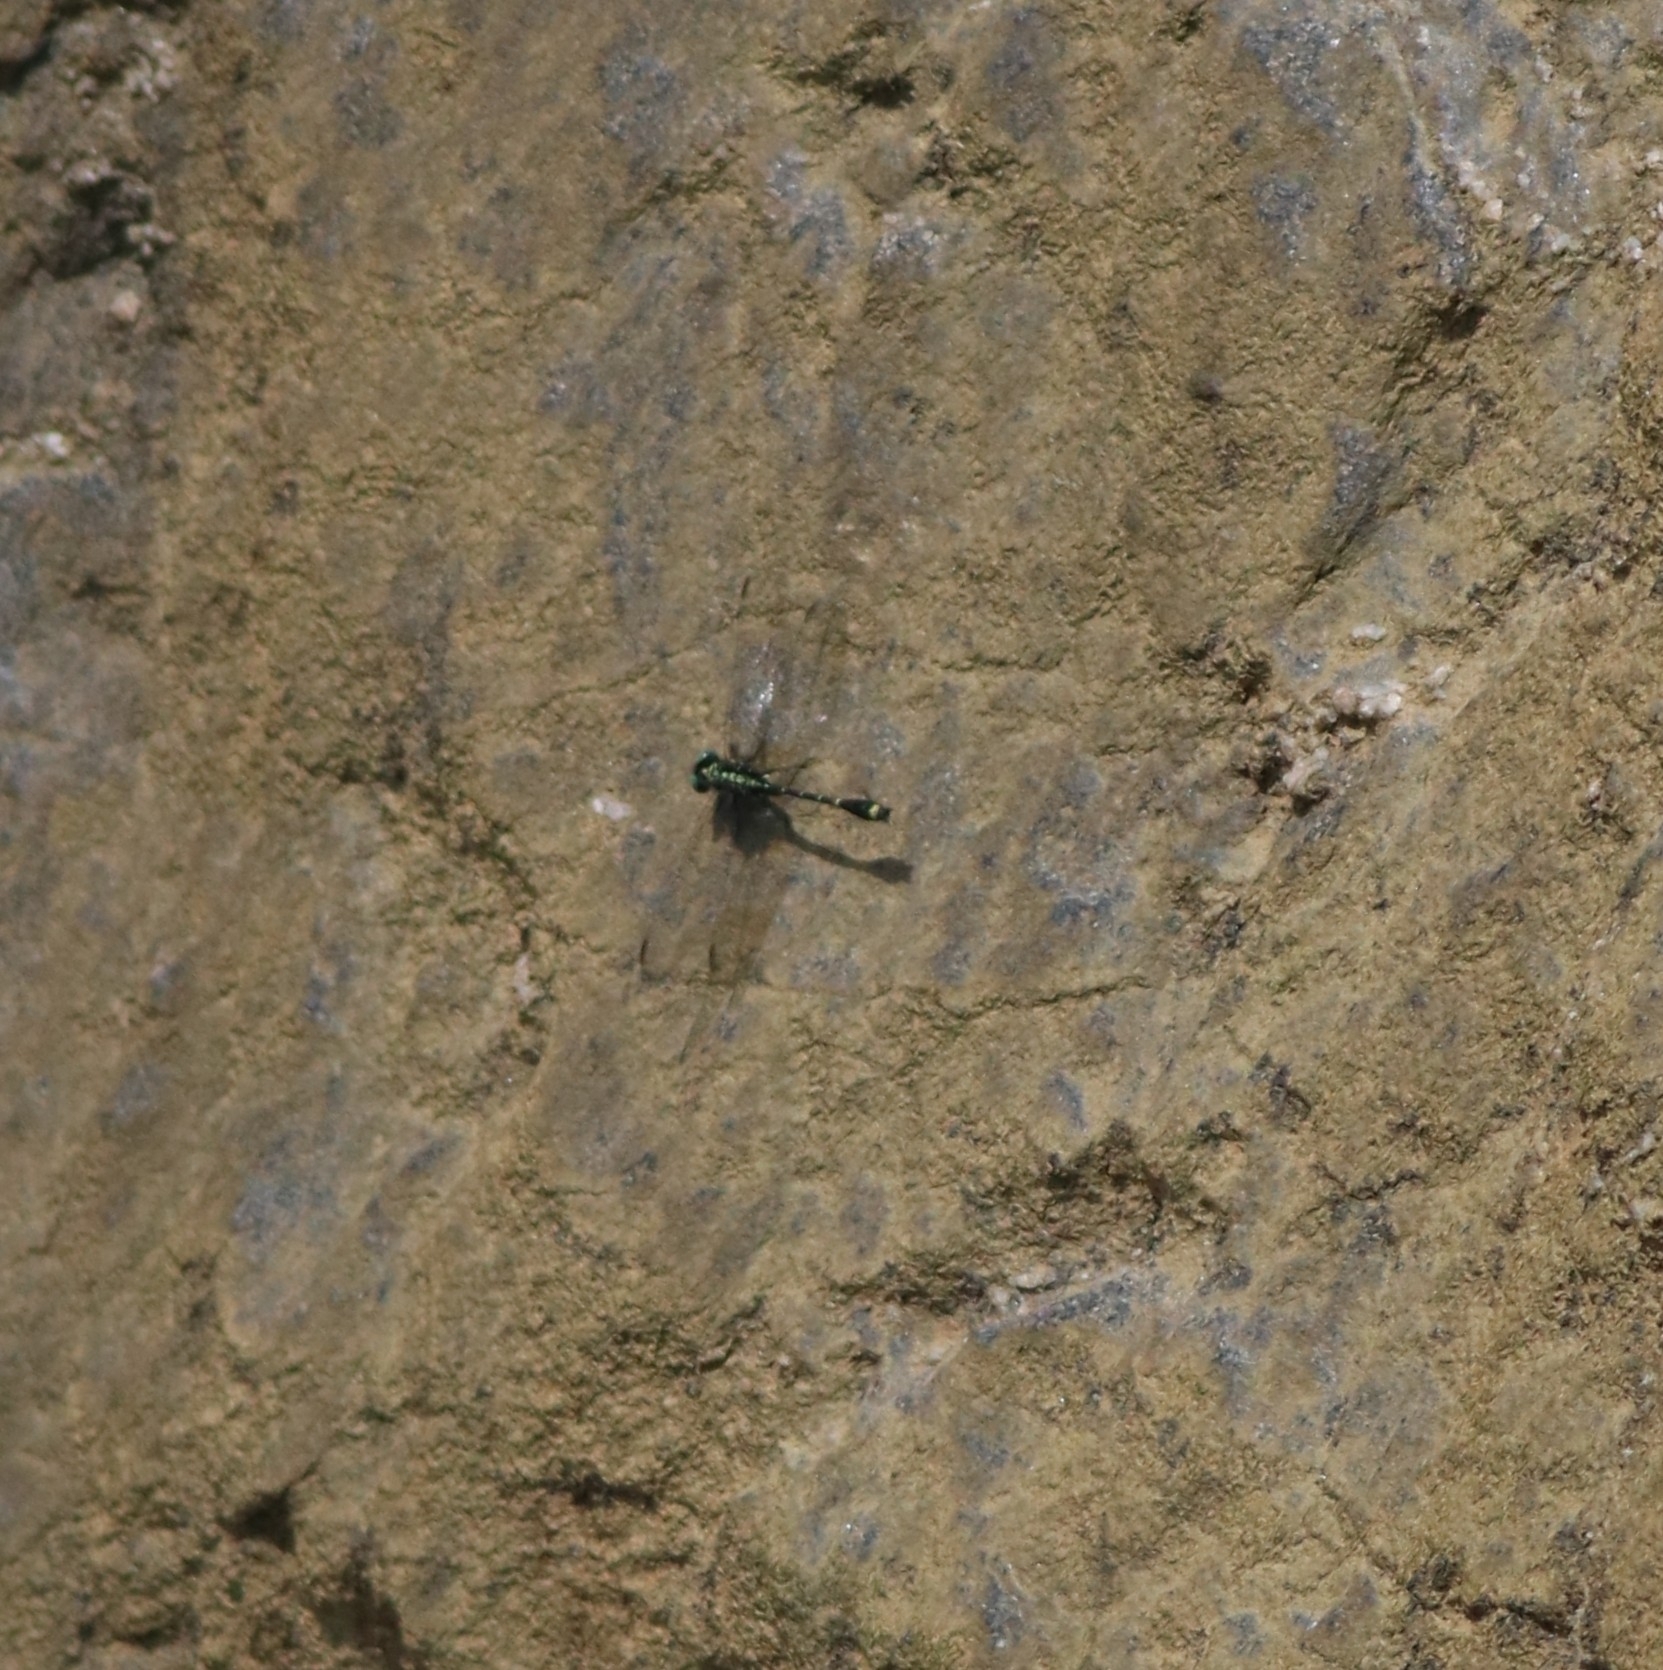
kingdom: Animalia
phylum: Arthropoda
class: Insecta
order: Odonata
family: Gomphidae
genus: Burmagomphus
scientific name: Burmagomphus laidlawi
